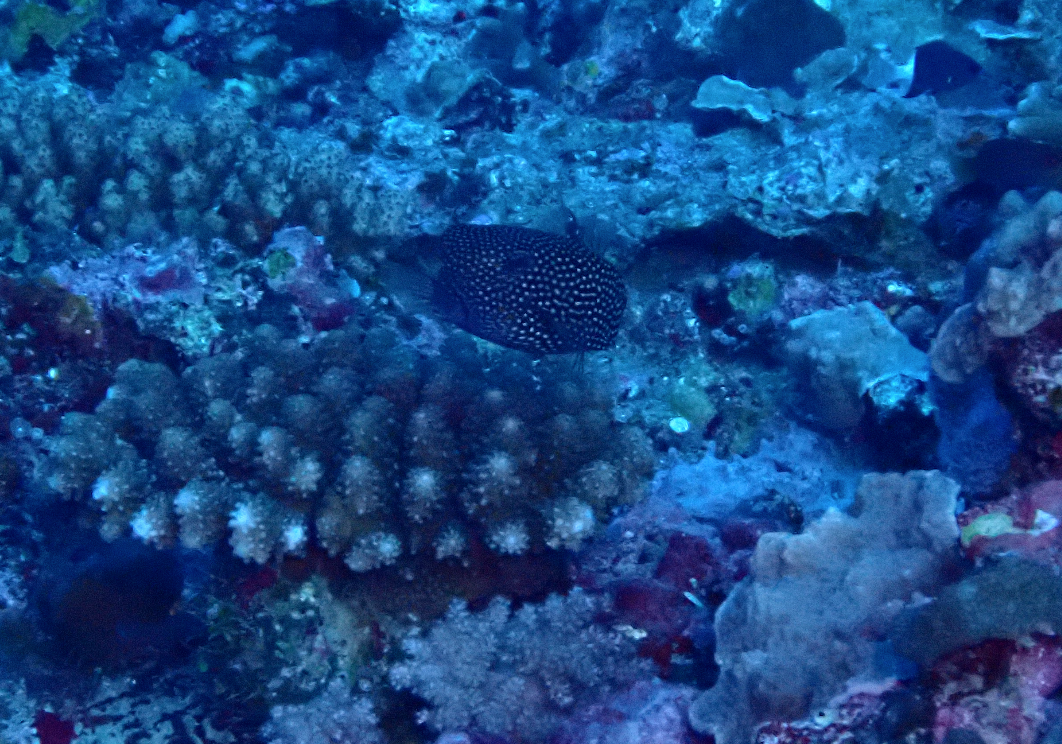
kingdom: Animalia
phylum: Chordata
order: Tetraodontiformes
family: Ostraciidae
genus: Ostracion
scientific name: Ostracion meleagris
